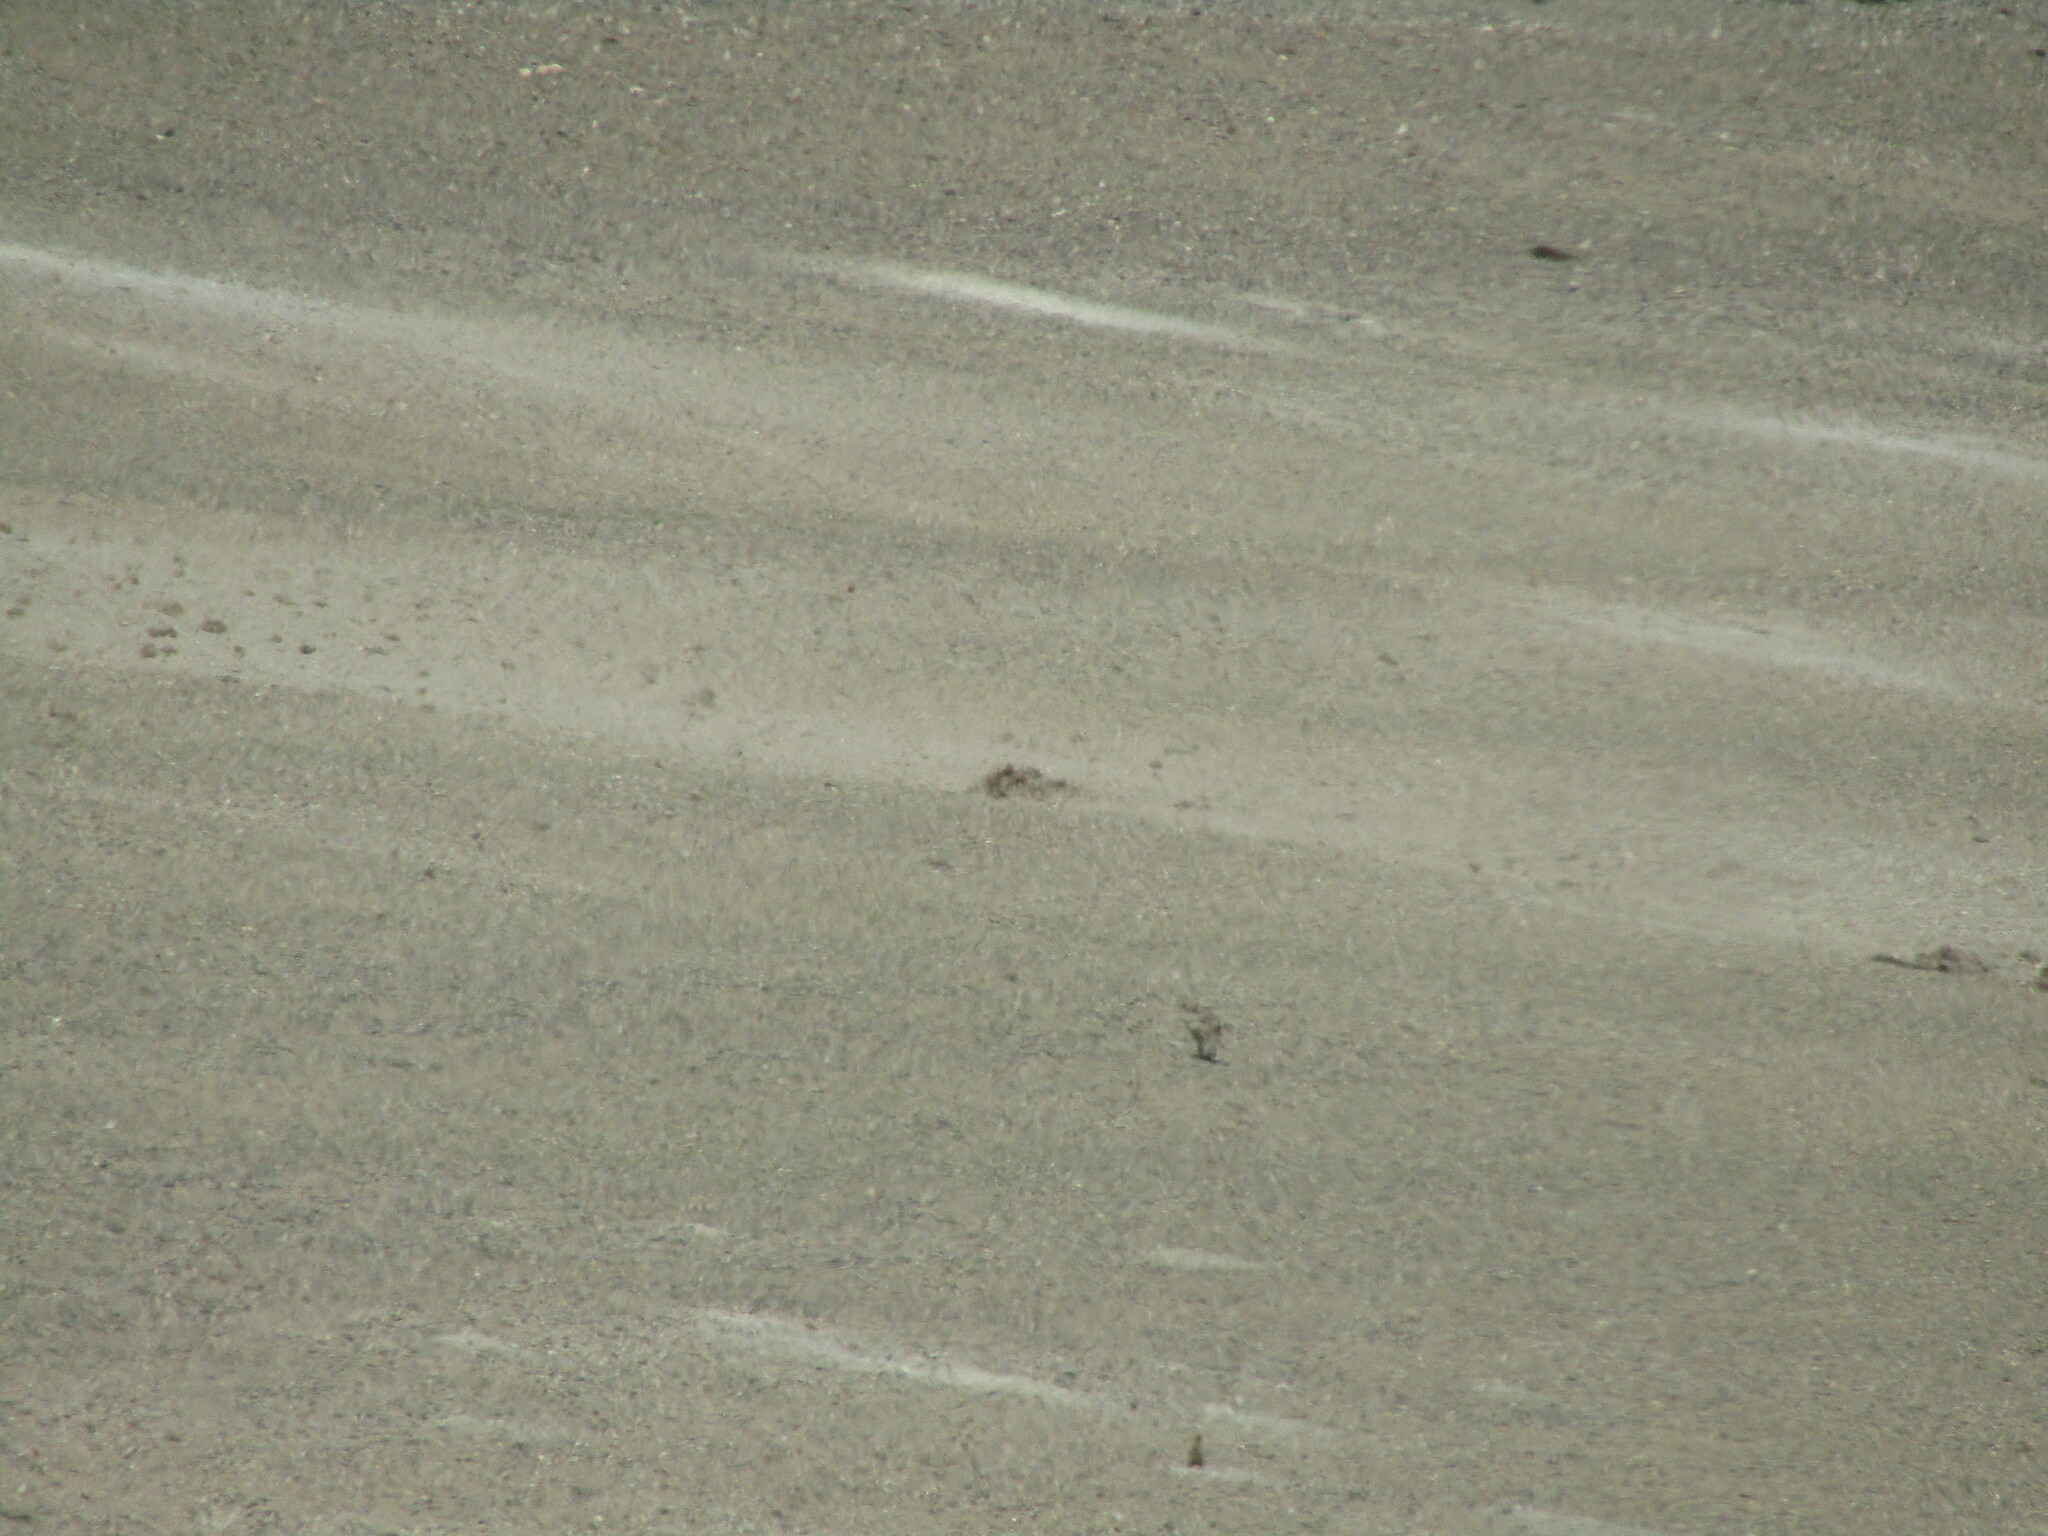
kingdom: Animalia
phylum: Chordata
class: Mammalia
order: Carnivora
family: Canidae
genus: Canis
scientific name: Canis lupus
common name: Gray wolf
